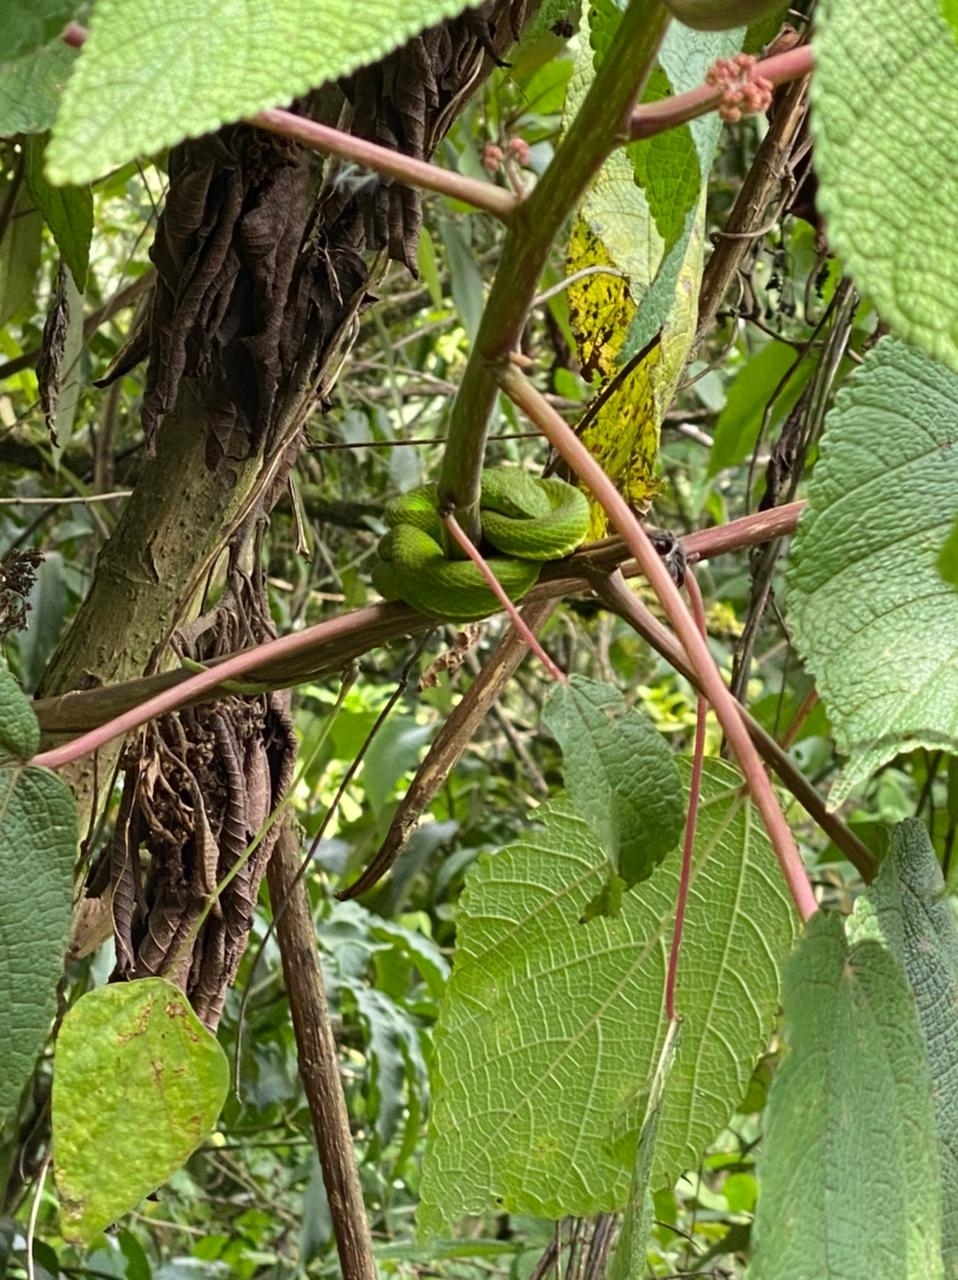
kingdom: Animalia
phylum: Chordata
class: Squamata
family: Viperidae
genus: Bothriechis
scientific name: Bothriechis lateralis
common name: Coffee palm viper
